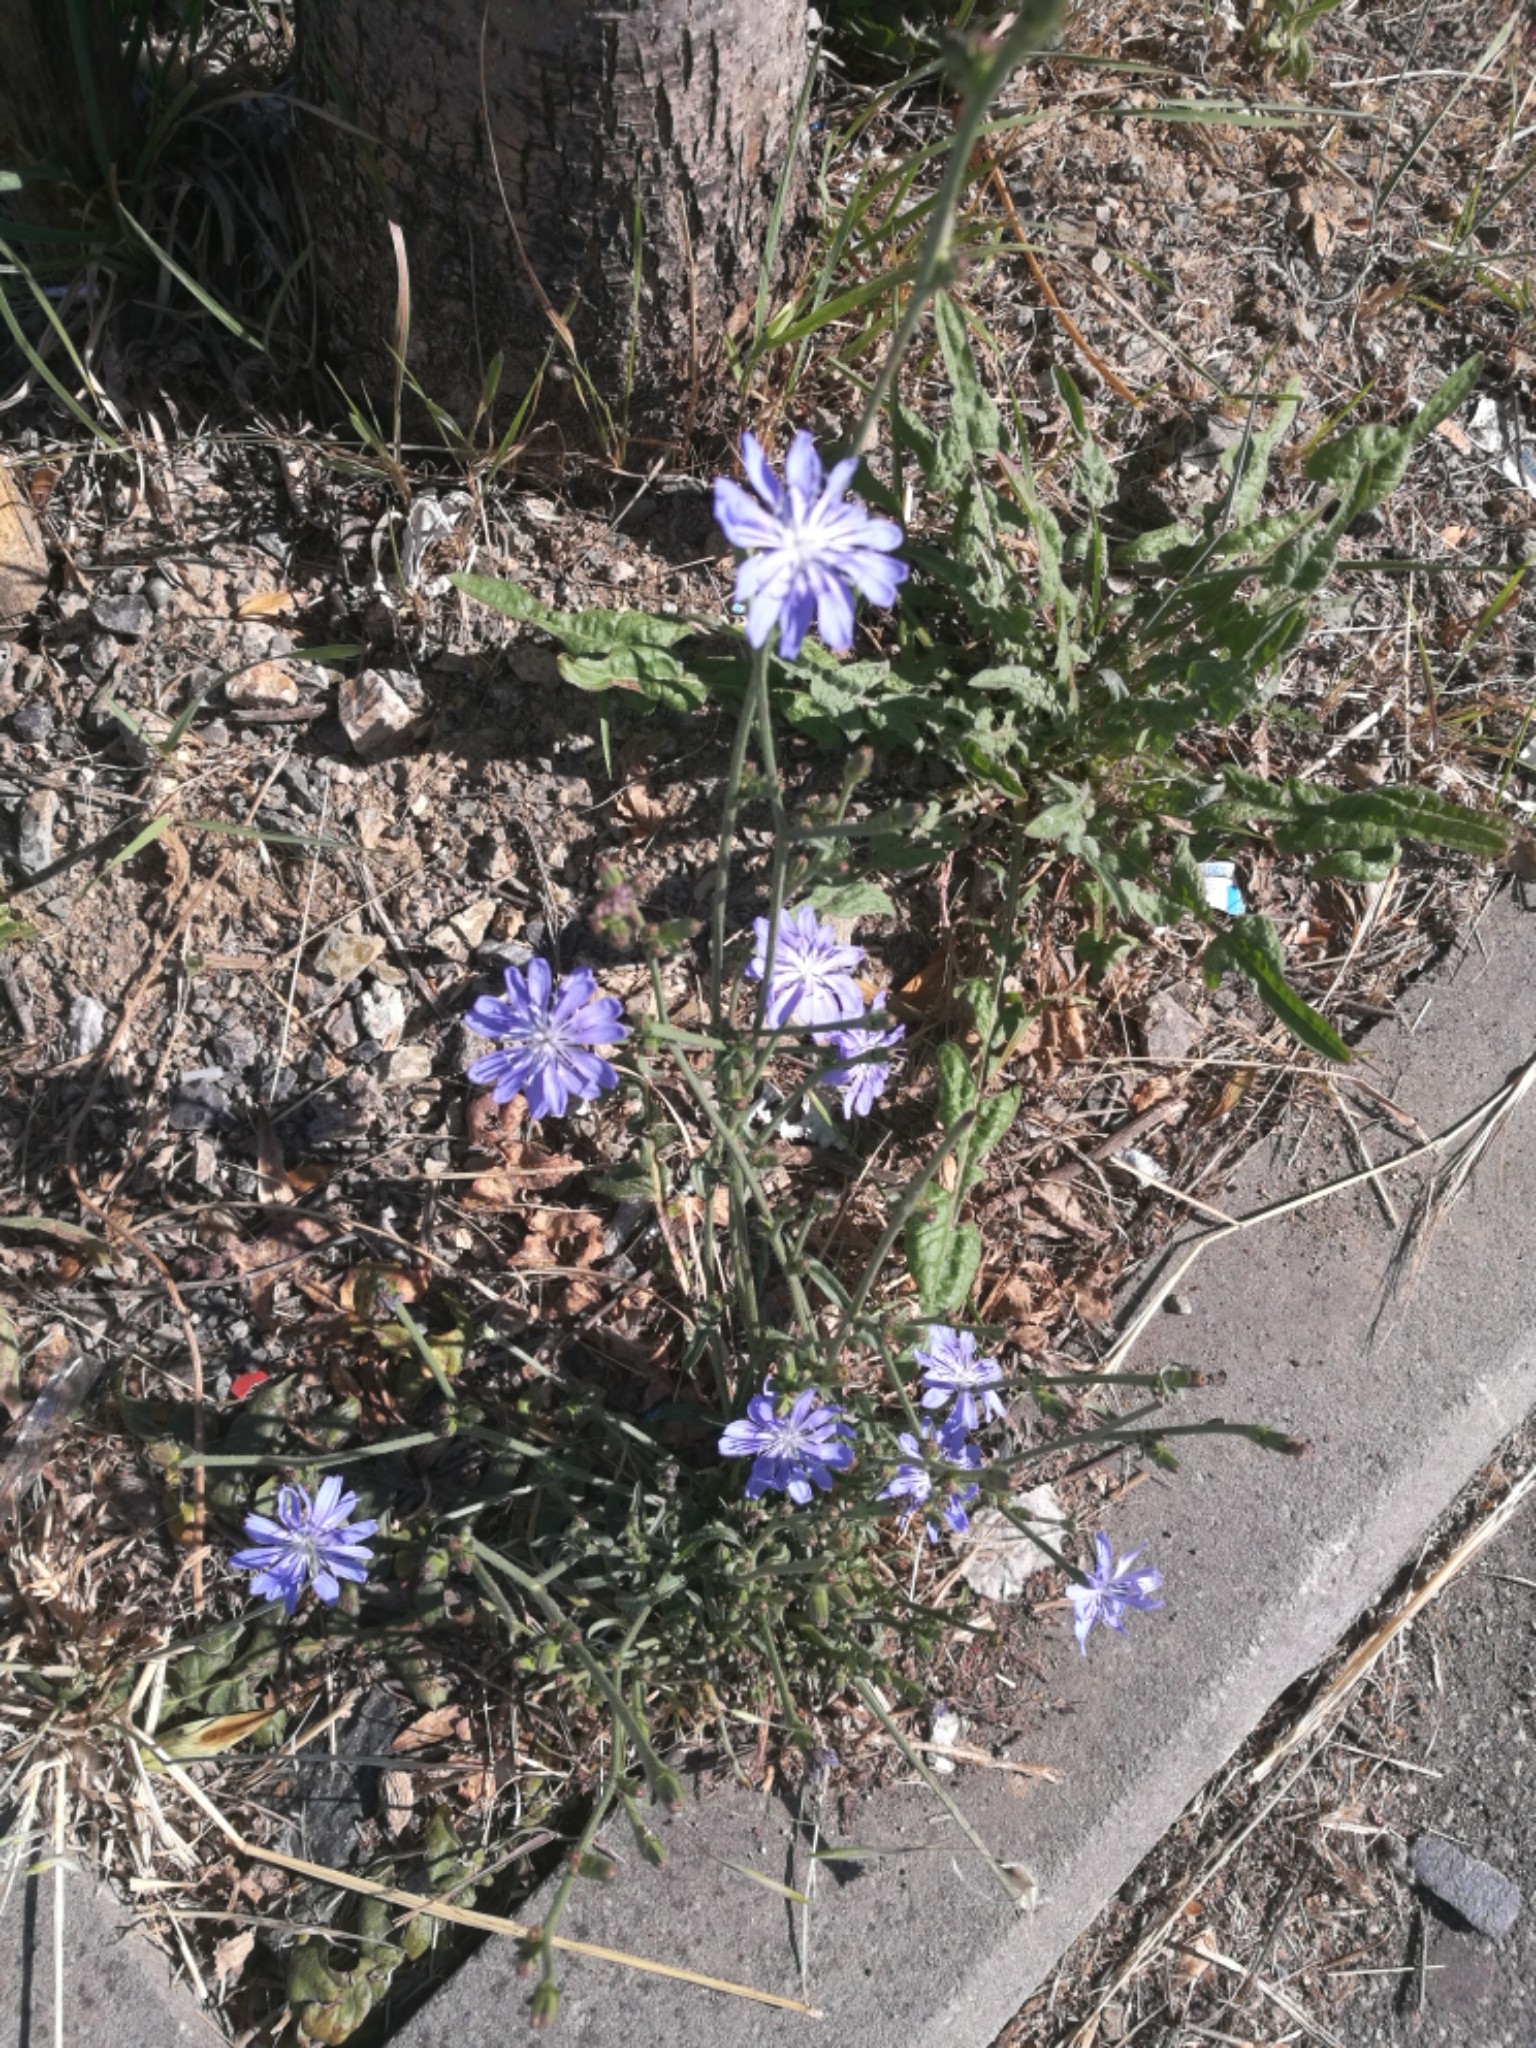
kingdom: Plantae
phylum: Tracheophyta
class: Magnoliopsida
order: Asterales
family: Asteraceae
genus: Cichorium
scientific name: Cichorium intybus
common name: Chicory
